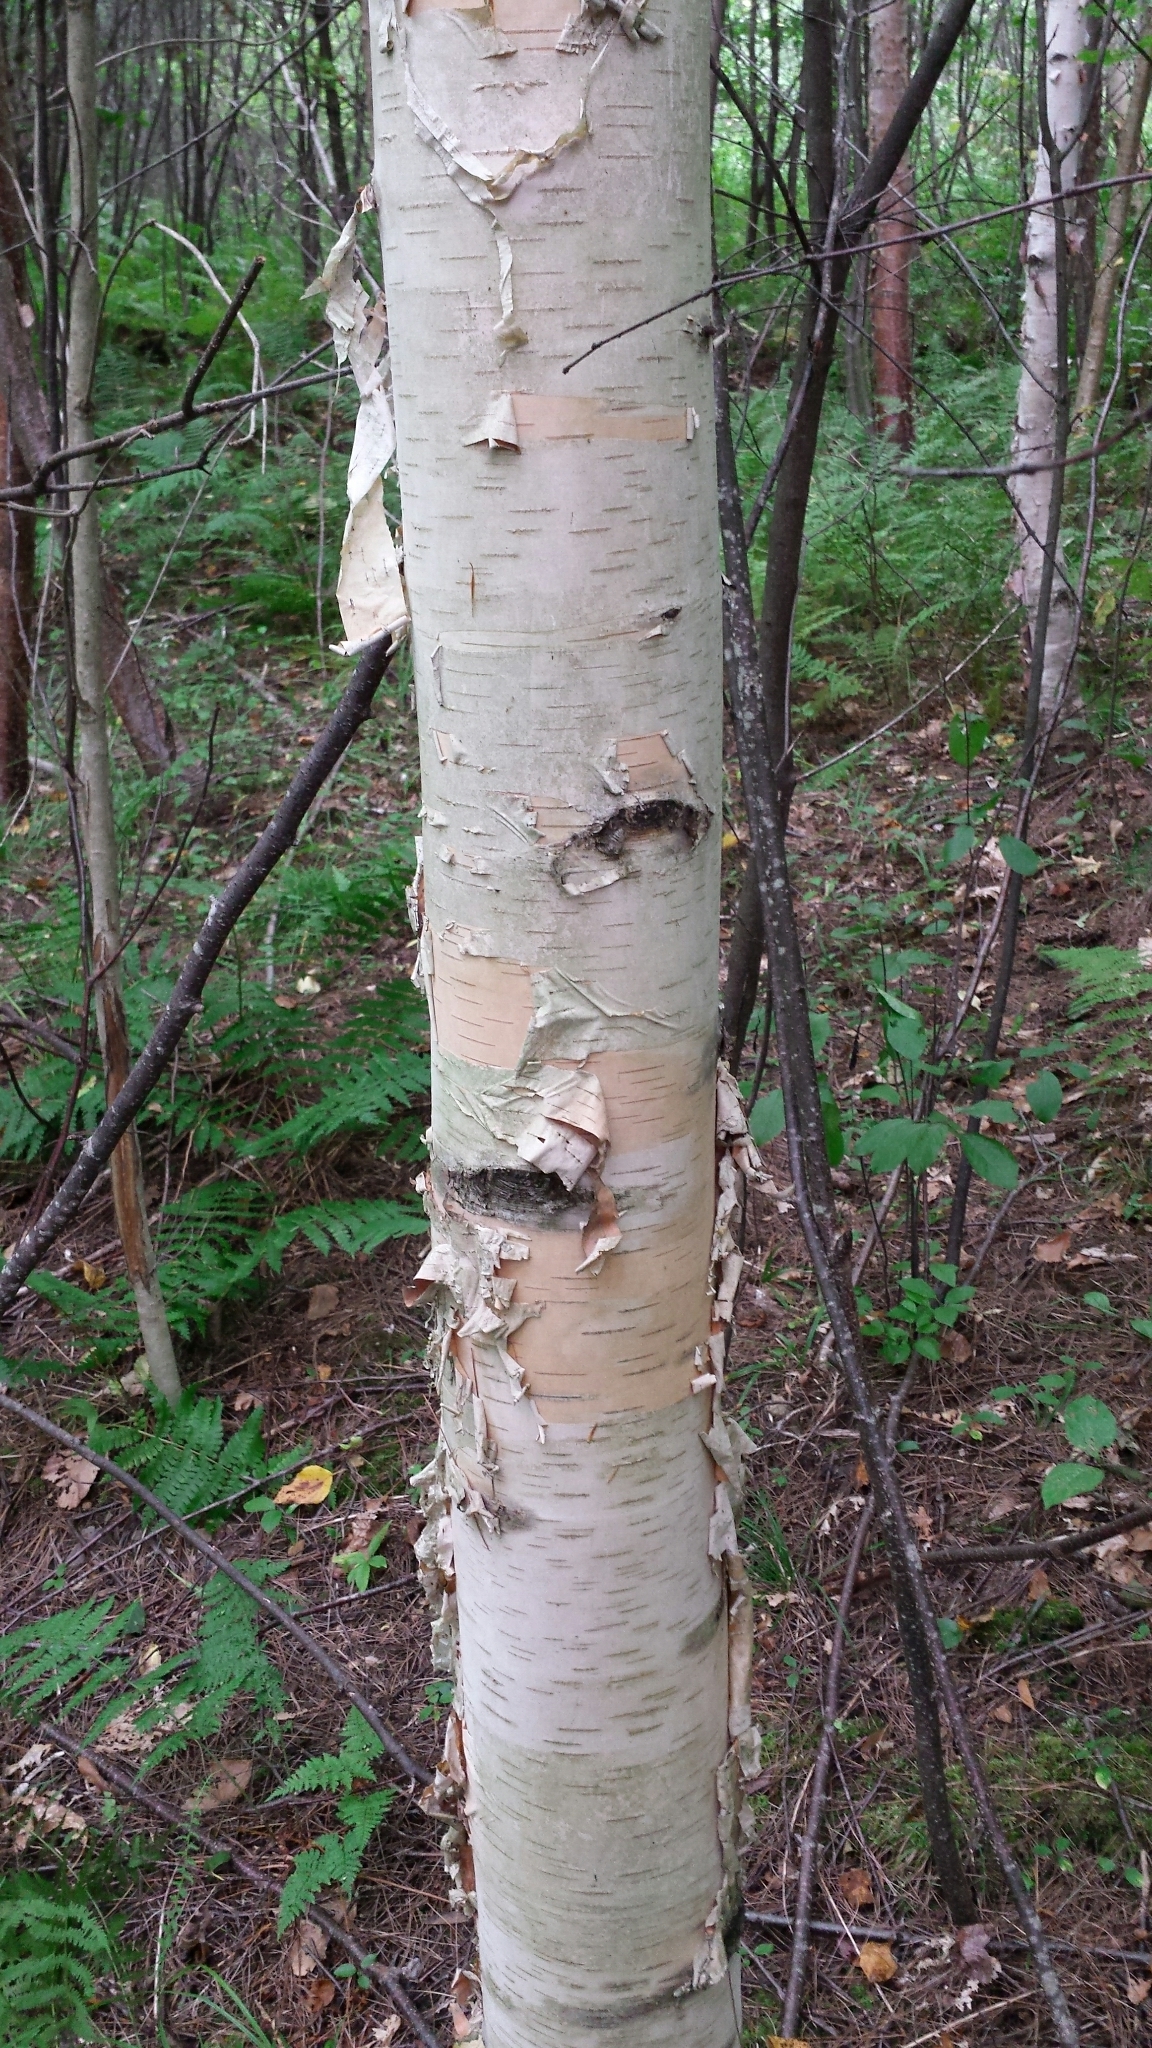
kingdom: Plantae
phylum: Tracheophyta
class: Magnoliopsida
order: Fagales
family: Betulaceae
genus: Betula
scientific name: Betula papyrifera
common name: Paper birch
